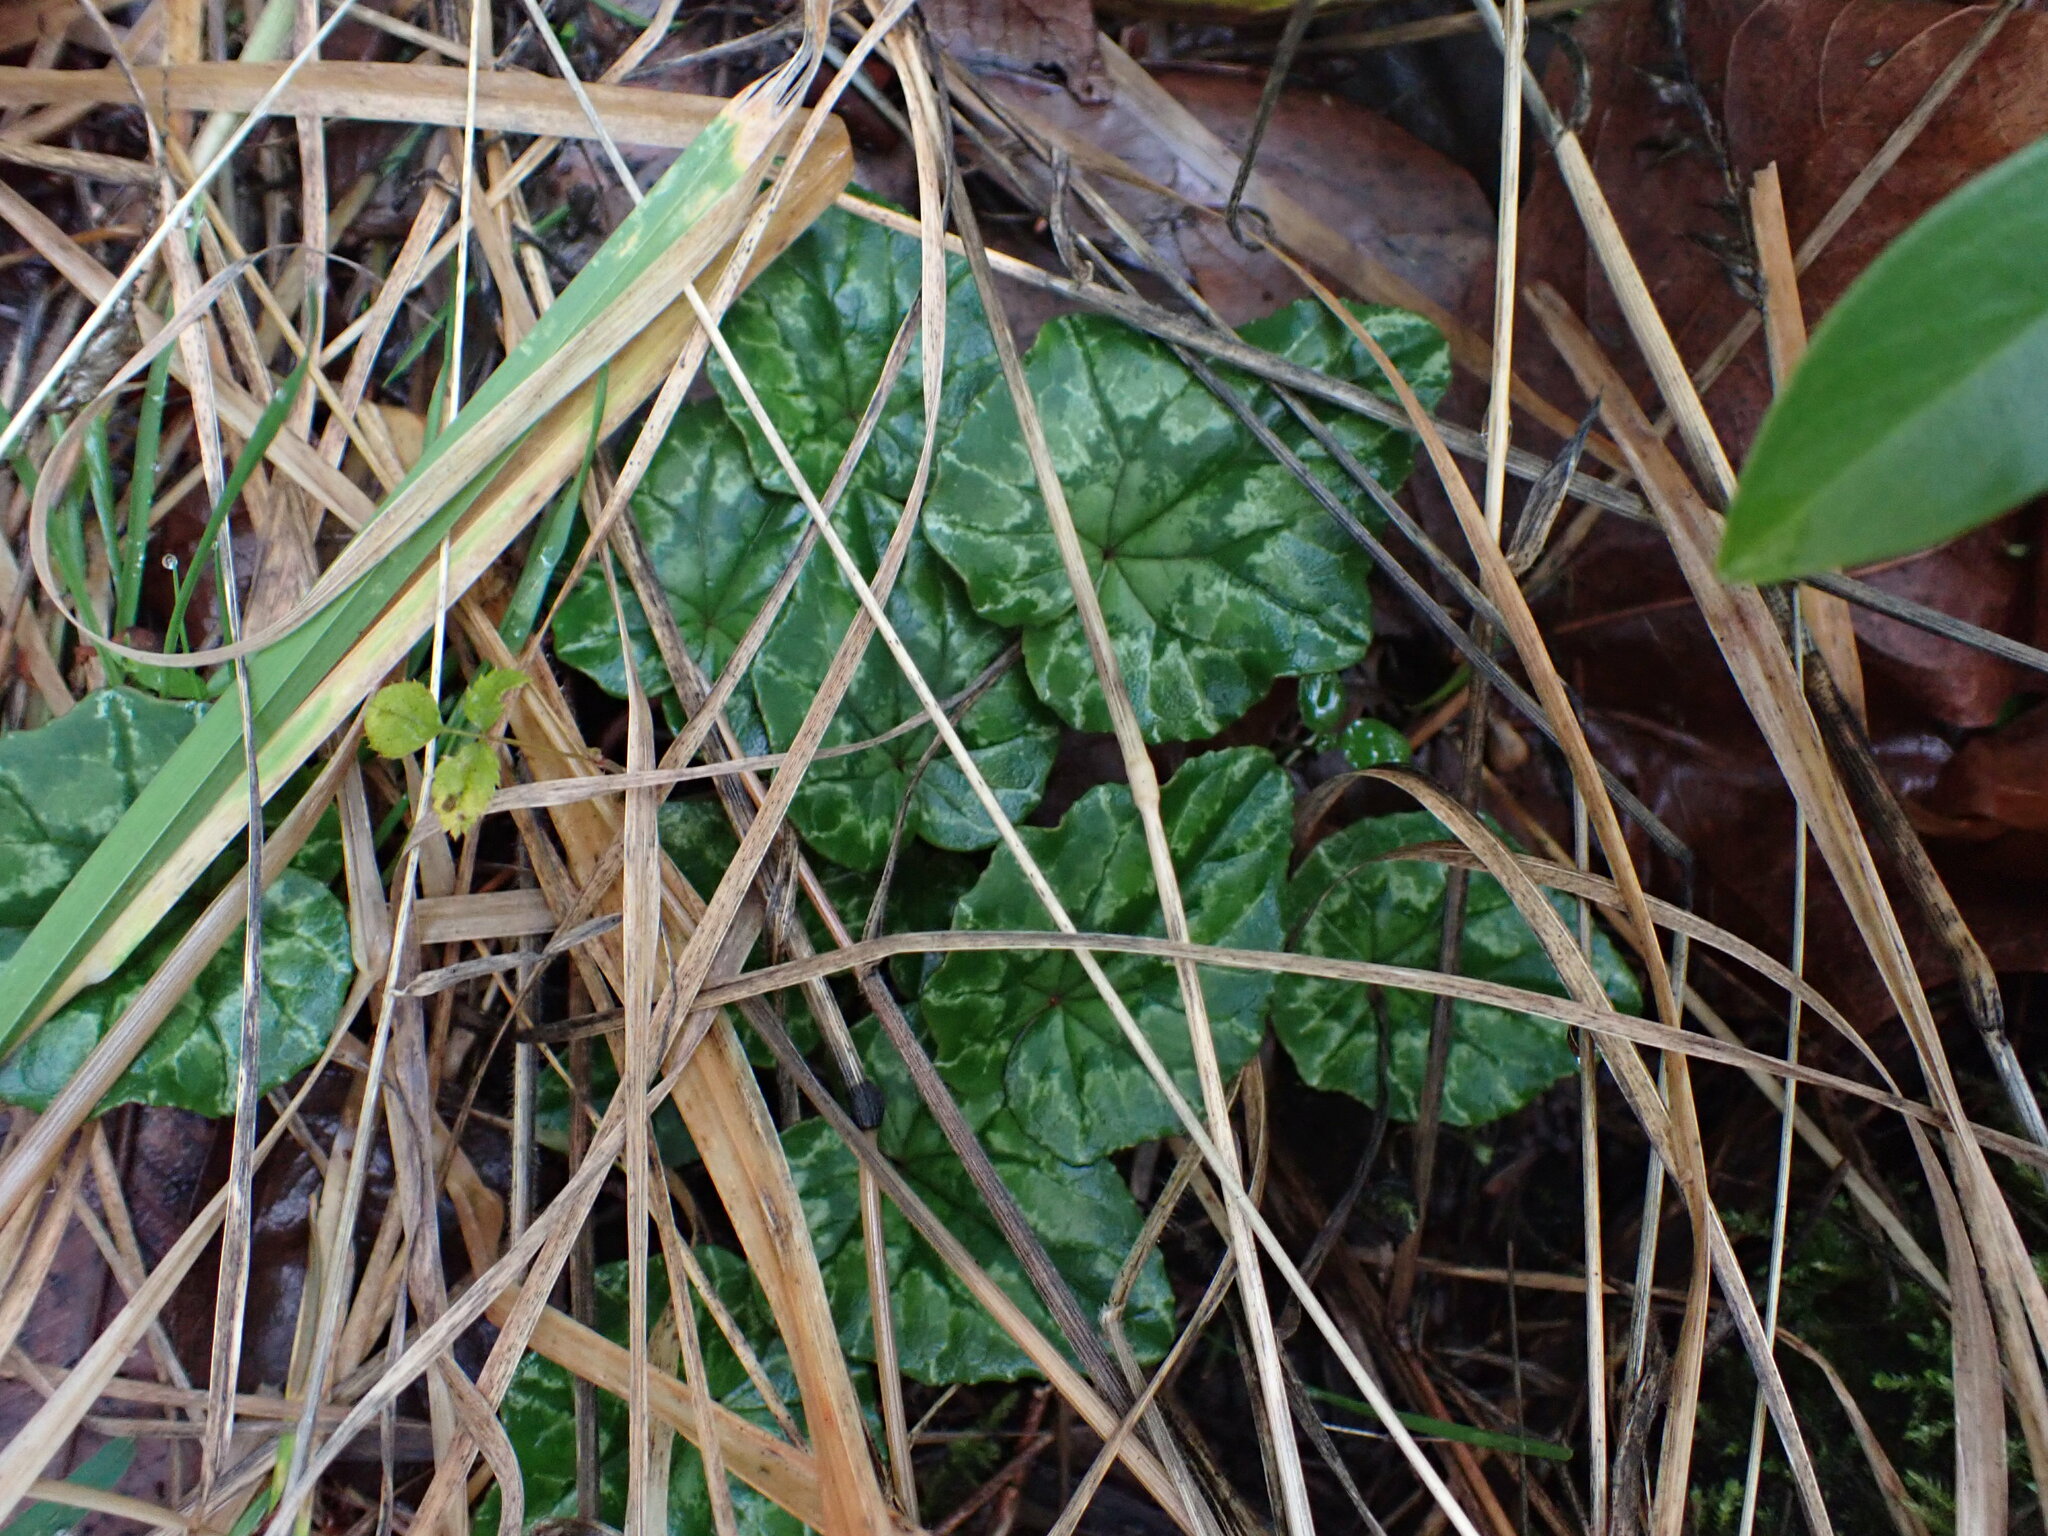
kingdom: Plantae
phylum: Tracheophyta
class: Magnoliopsida
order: Ericales
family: Primulaceae
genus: Cyclamen
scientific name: Cyclamen hederifolium
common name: Sowbread
